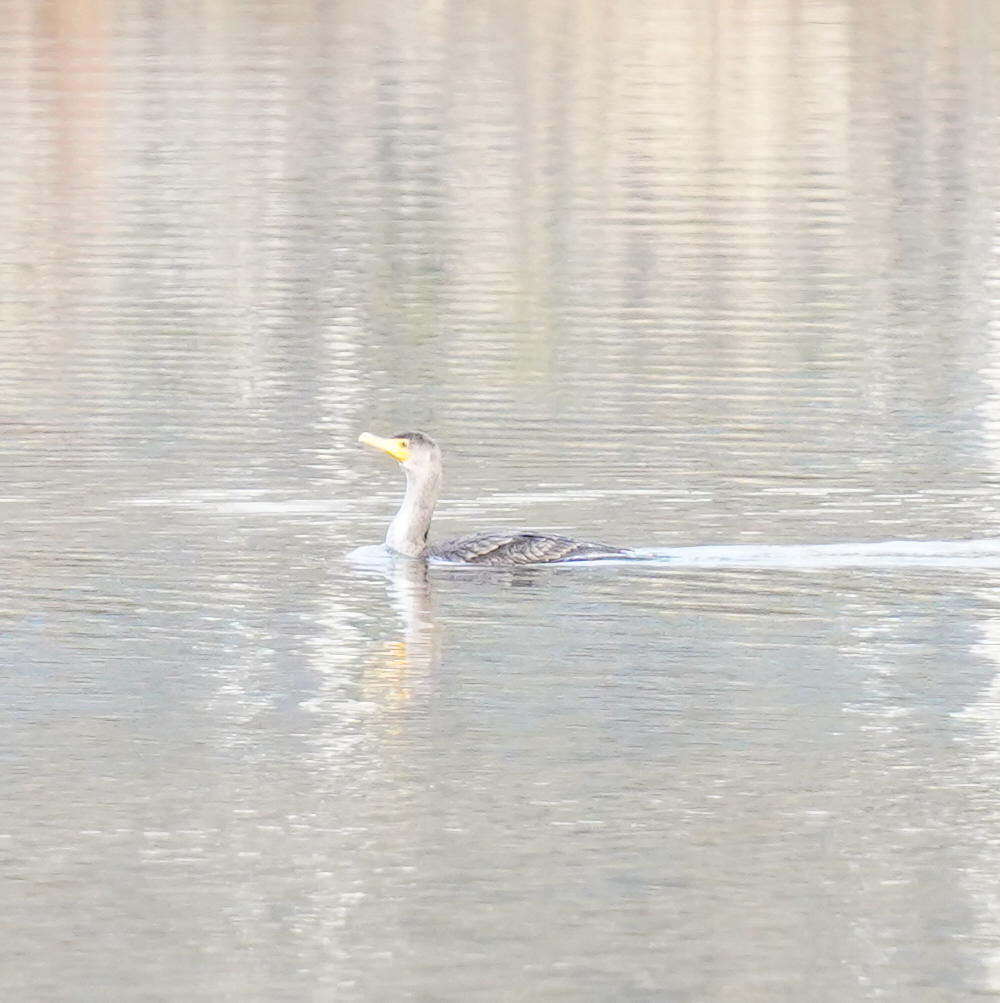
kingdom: Animalia
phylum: Chordata
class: Aves
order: Suliformes
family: Phalacrocoracidae
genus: Phalacrocorax
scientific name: Phalacrocorax auritus
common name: Double-crested cormorant
